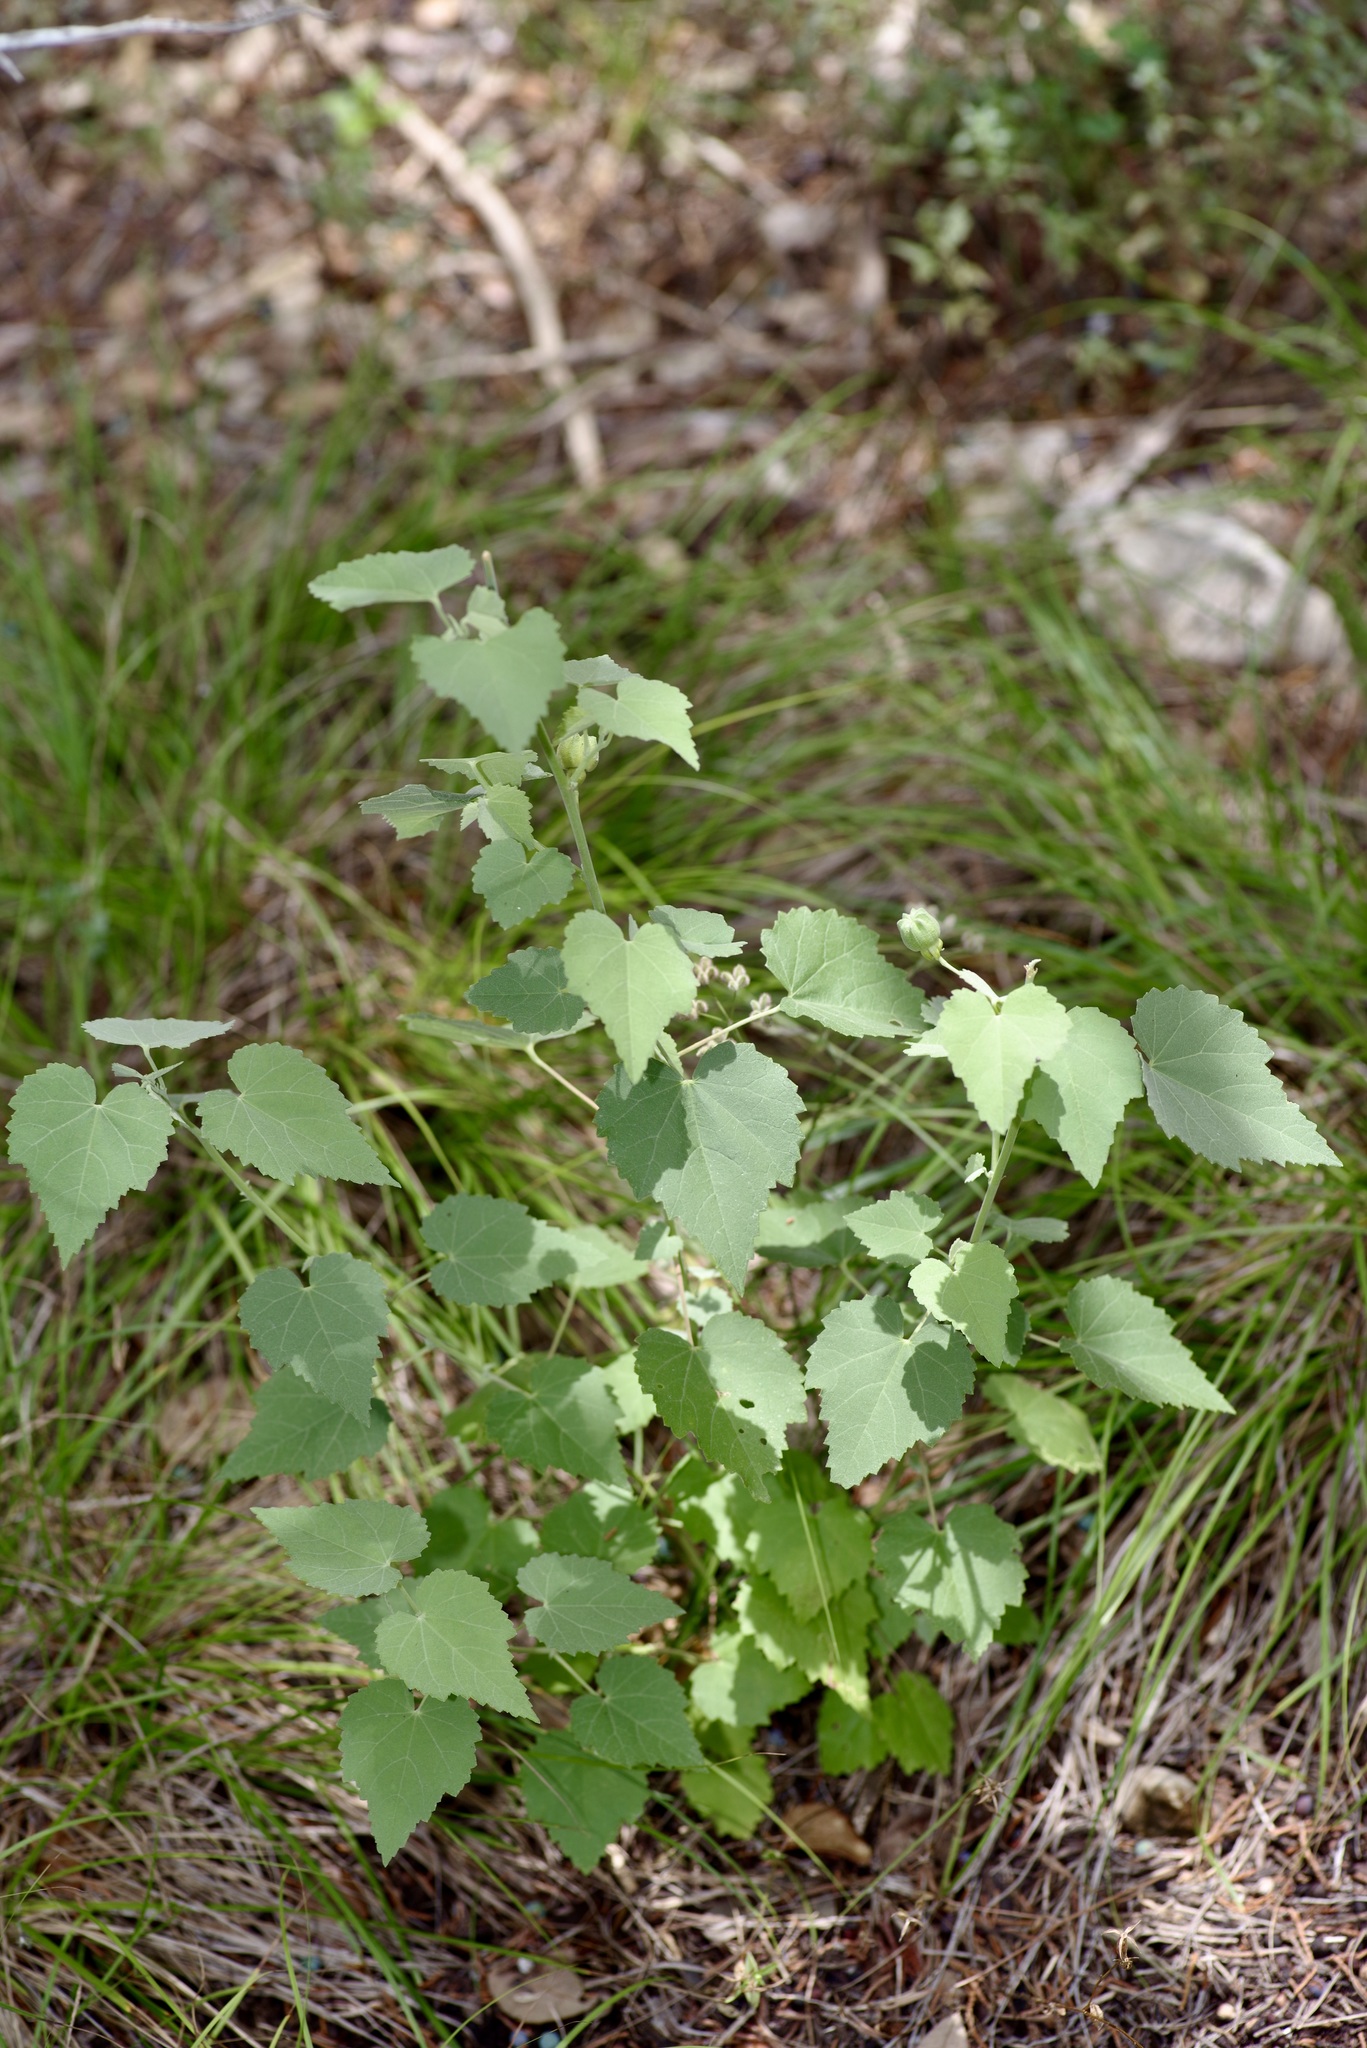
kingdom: Plantae
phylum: Tracheophyta
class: Magnoliopsida
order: Malvales
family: Malvaceae
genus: Abutilon
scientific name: Abutilon fruticosum
